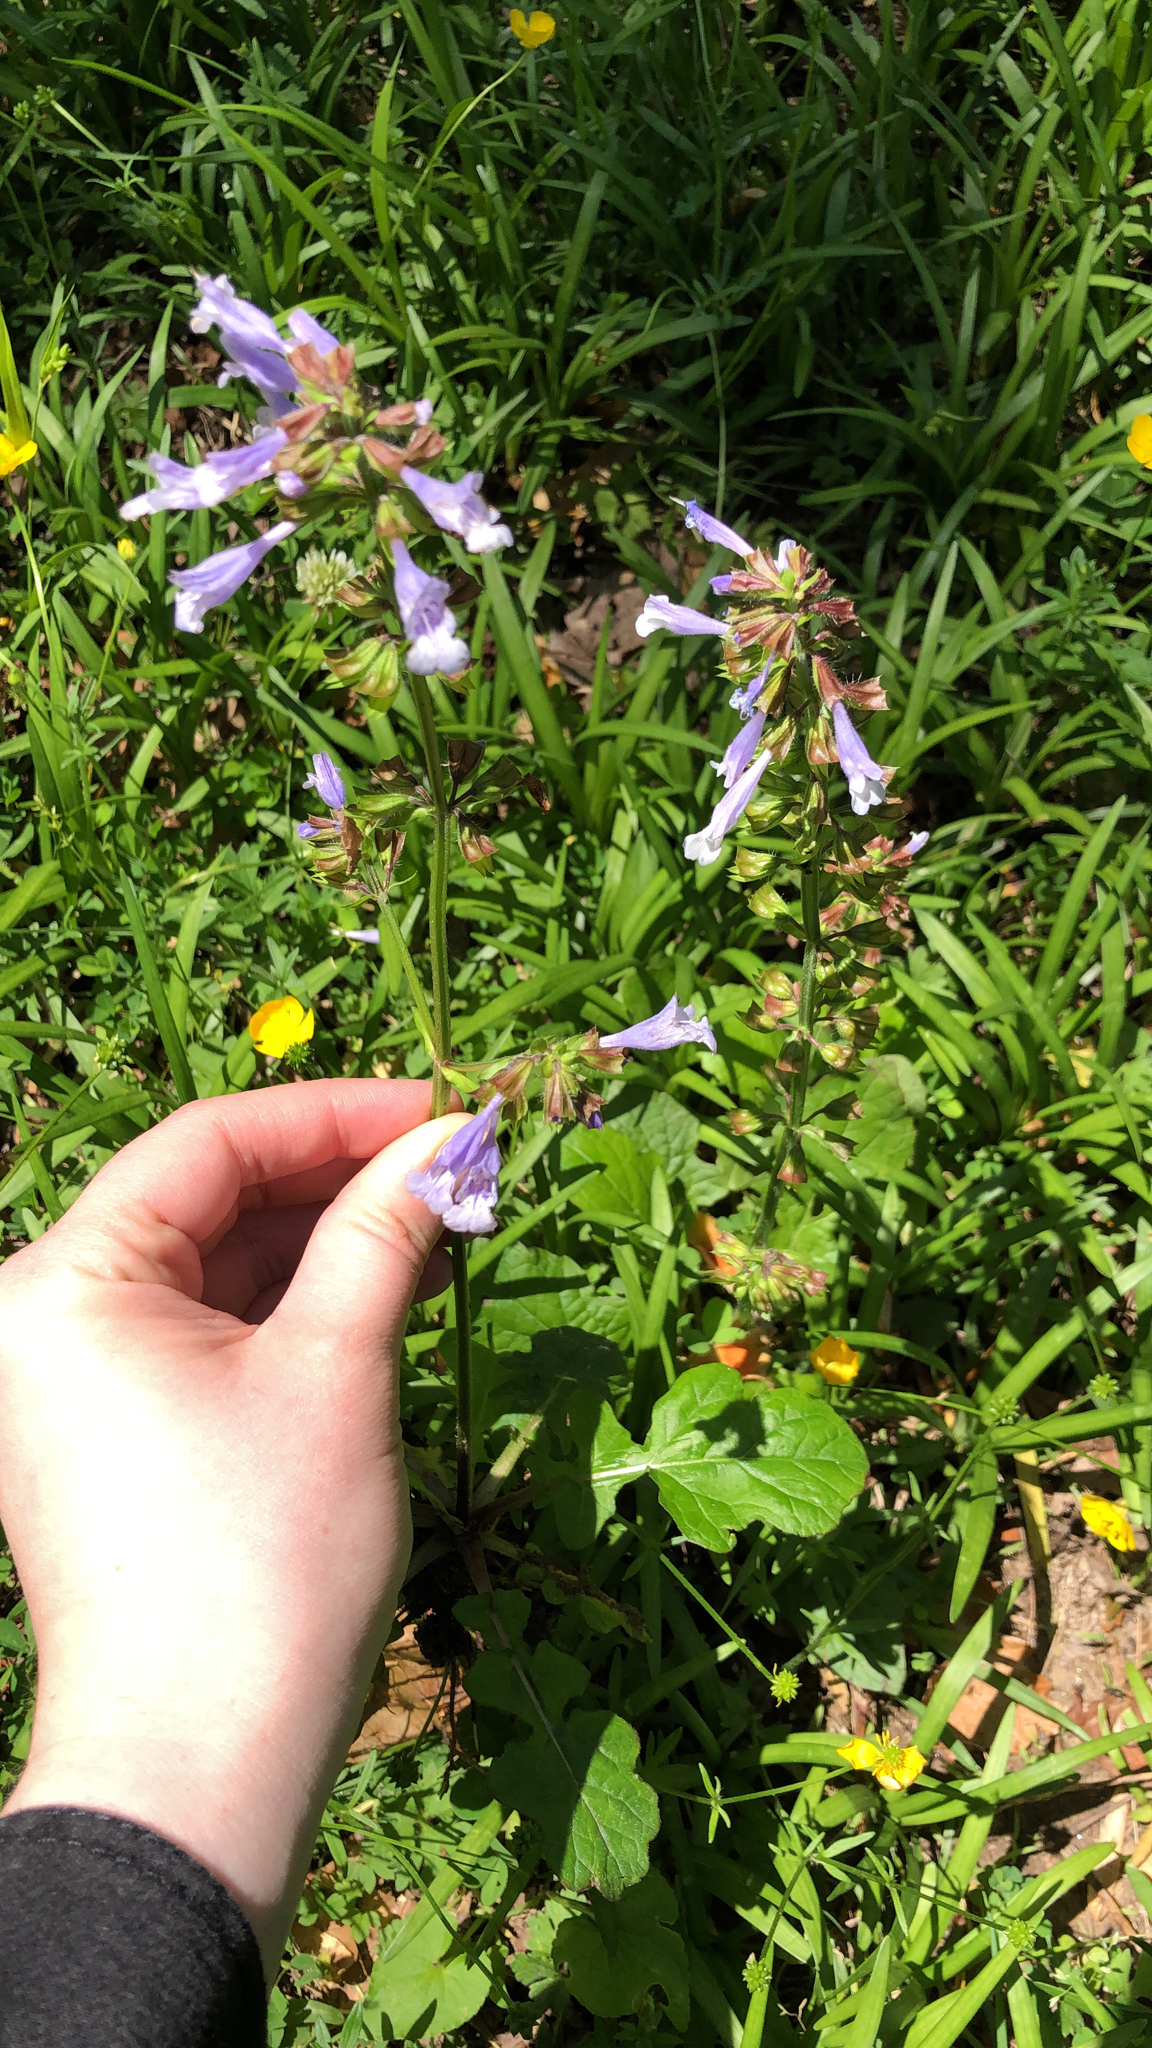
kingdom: Plantae
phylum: Tracheophyta
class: Magnoliopsida
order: Lamiales
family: Lamiaceae
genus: Salvia
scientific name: Salvia lyrata
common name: Cancerweed
